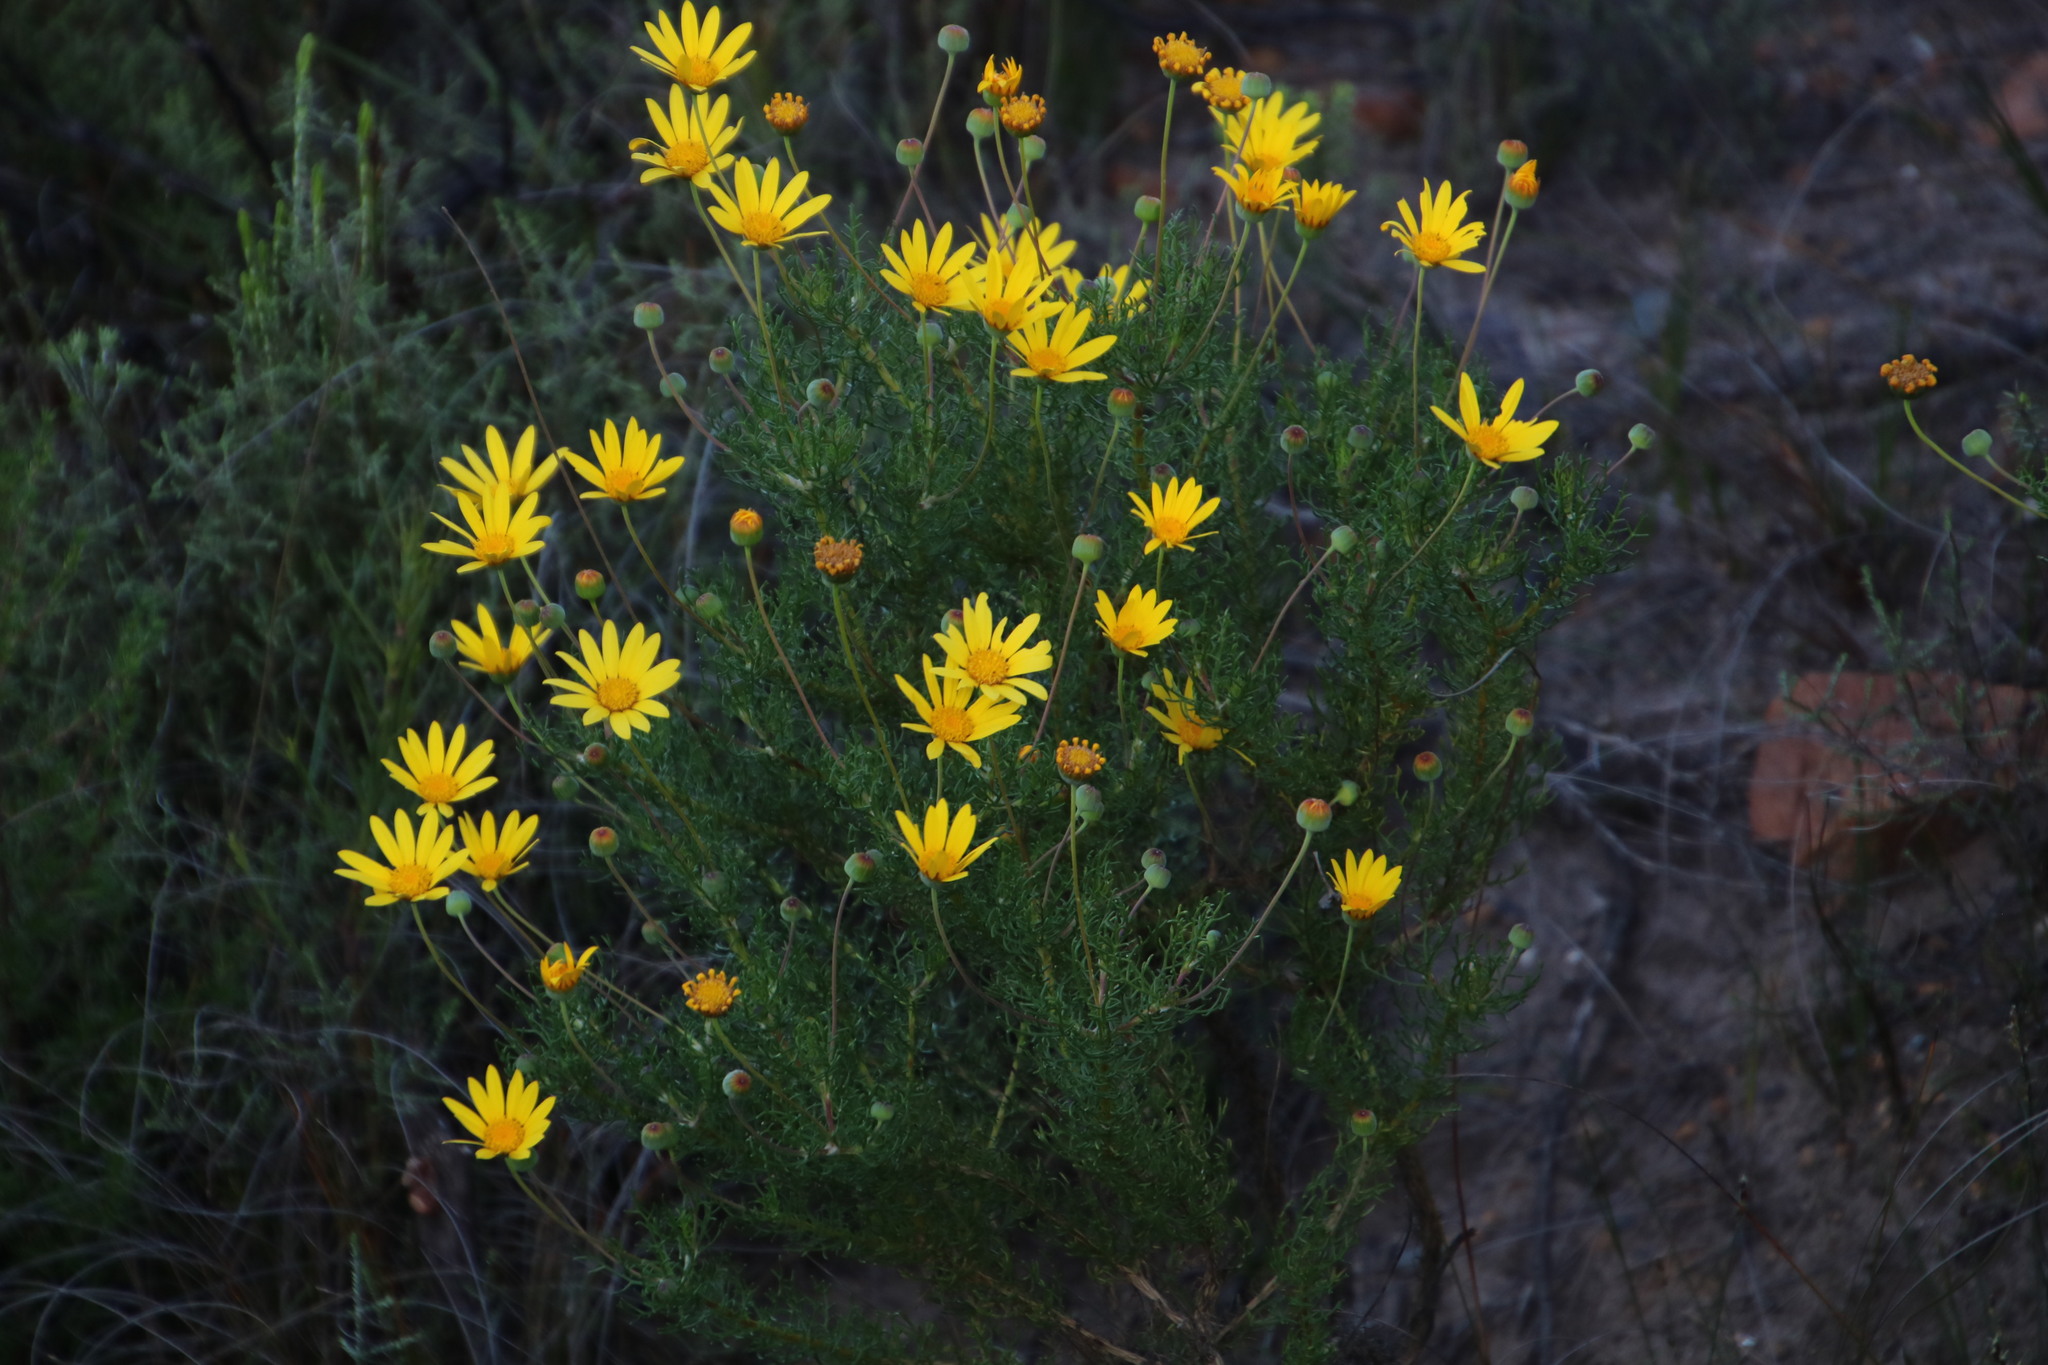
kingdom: Plantae
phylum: Tracheophyta
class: Magnoliopsida
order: Asterales
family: Asteraceae
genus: Euryops
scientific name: Euryops abrotanifolius
